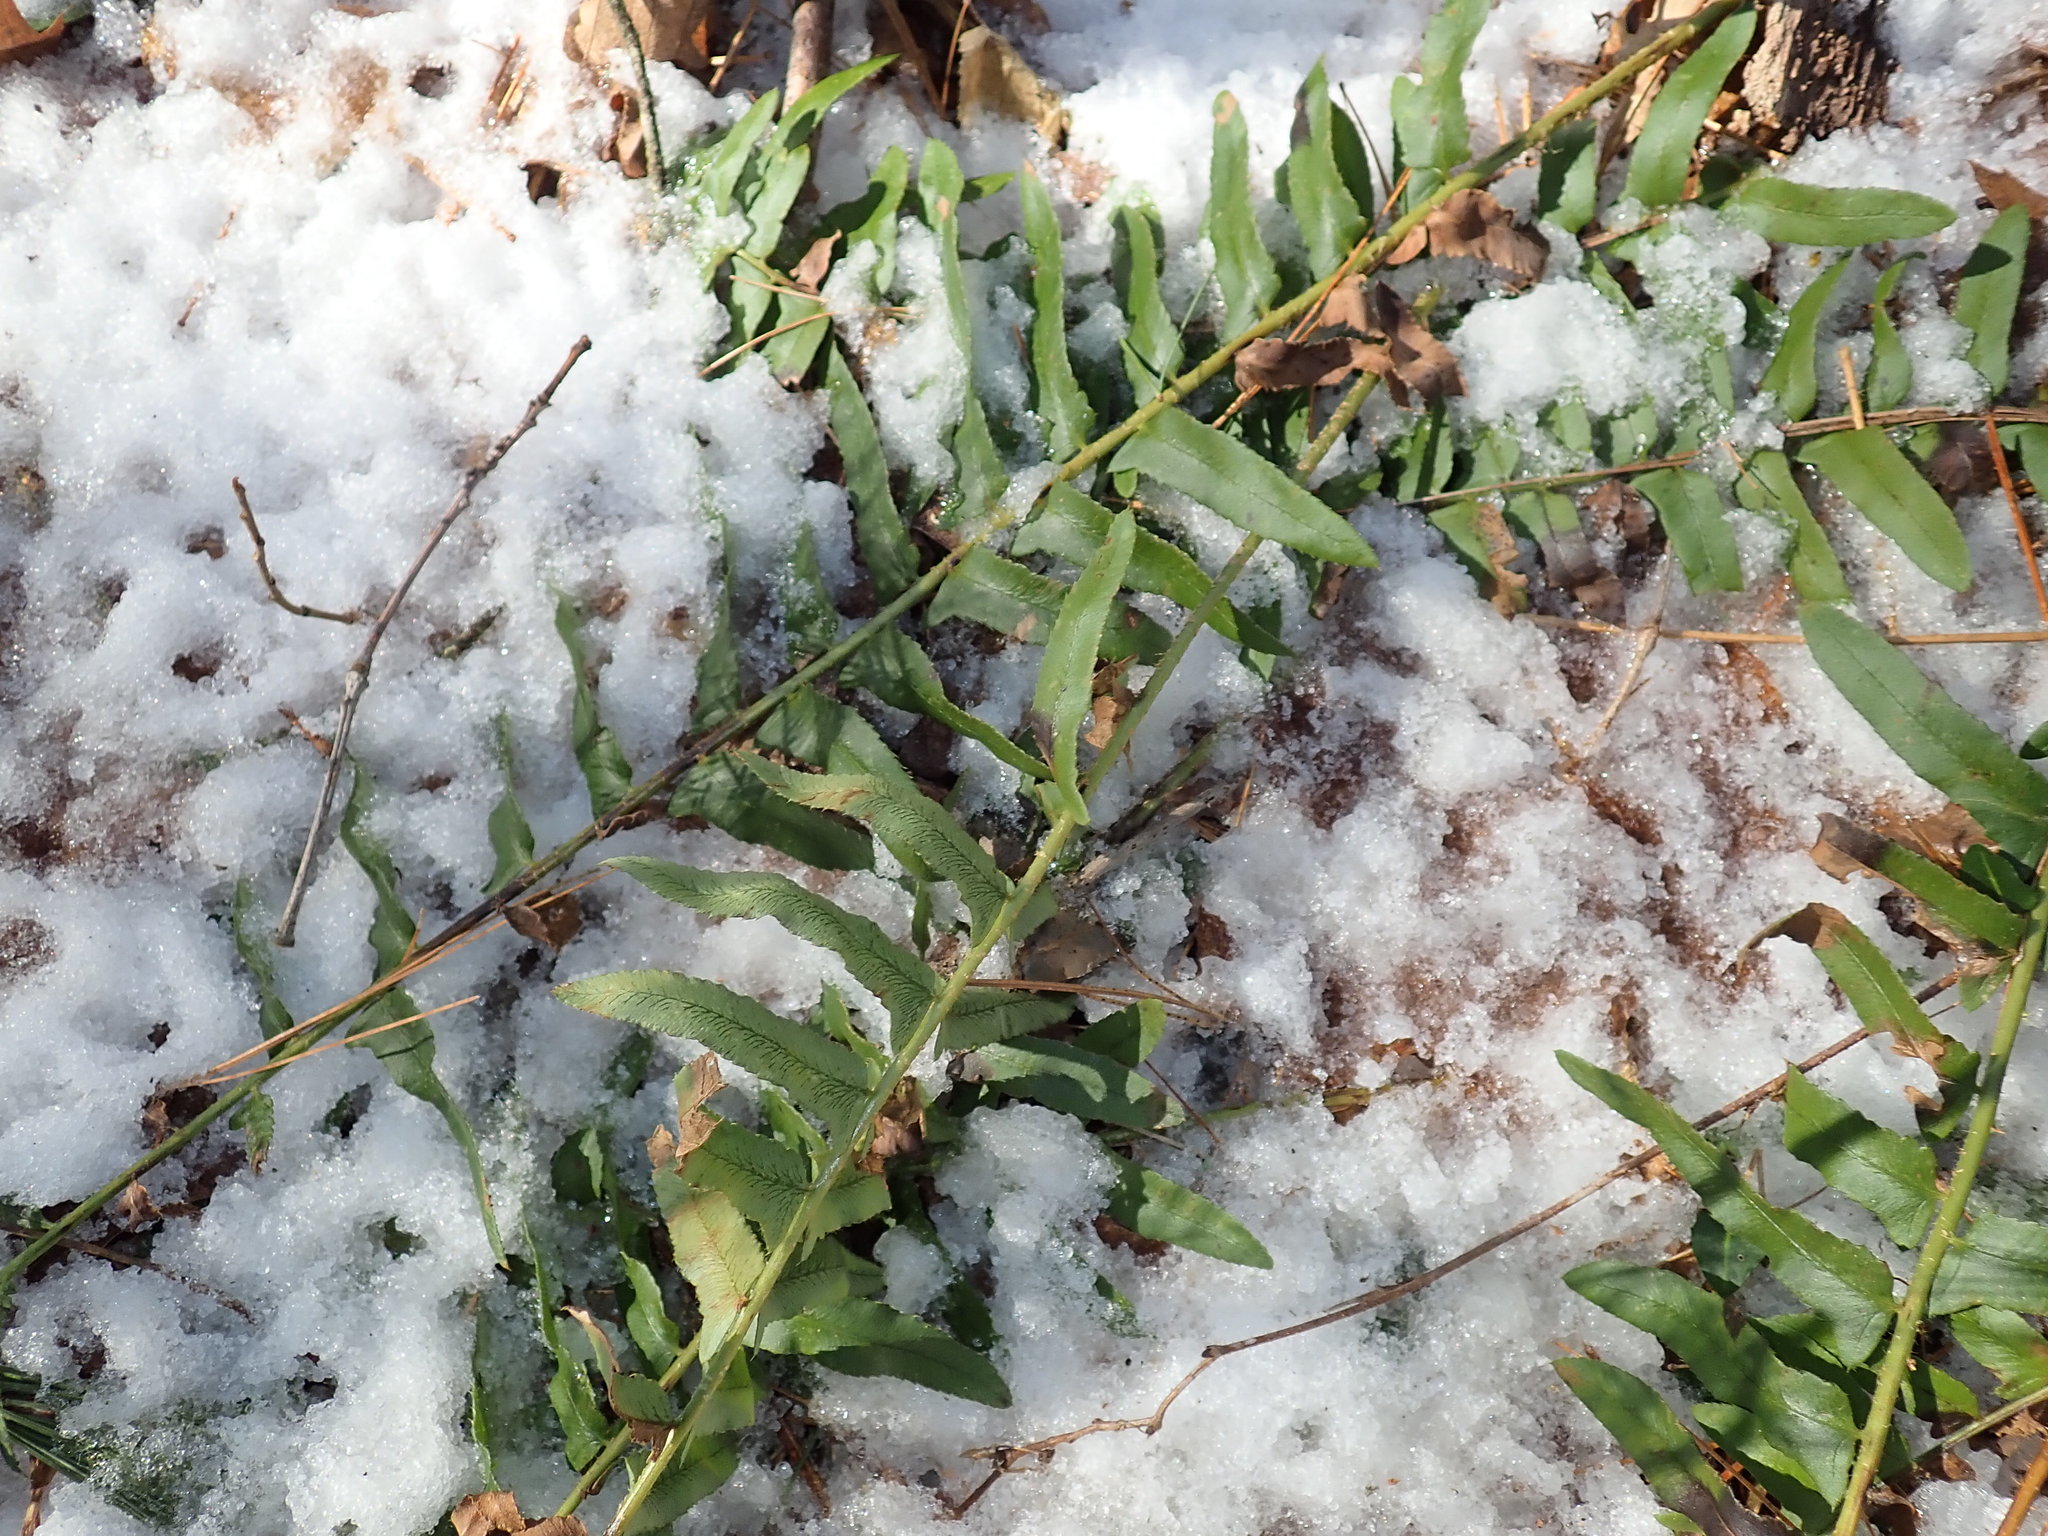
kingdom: Plantae
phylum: Tracheophyta
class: Polypodiopsida
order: Polypodiales
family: Dryopteridaceae
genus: Polystichum
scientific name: Polystichum acrostichoides
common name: Christmas fern
